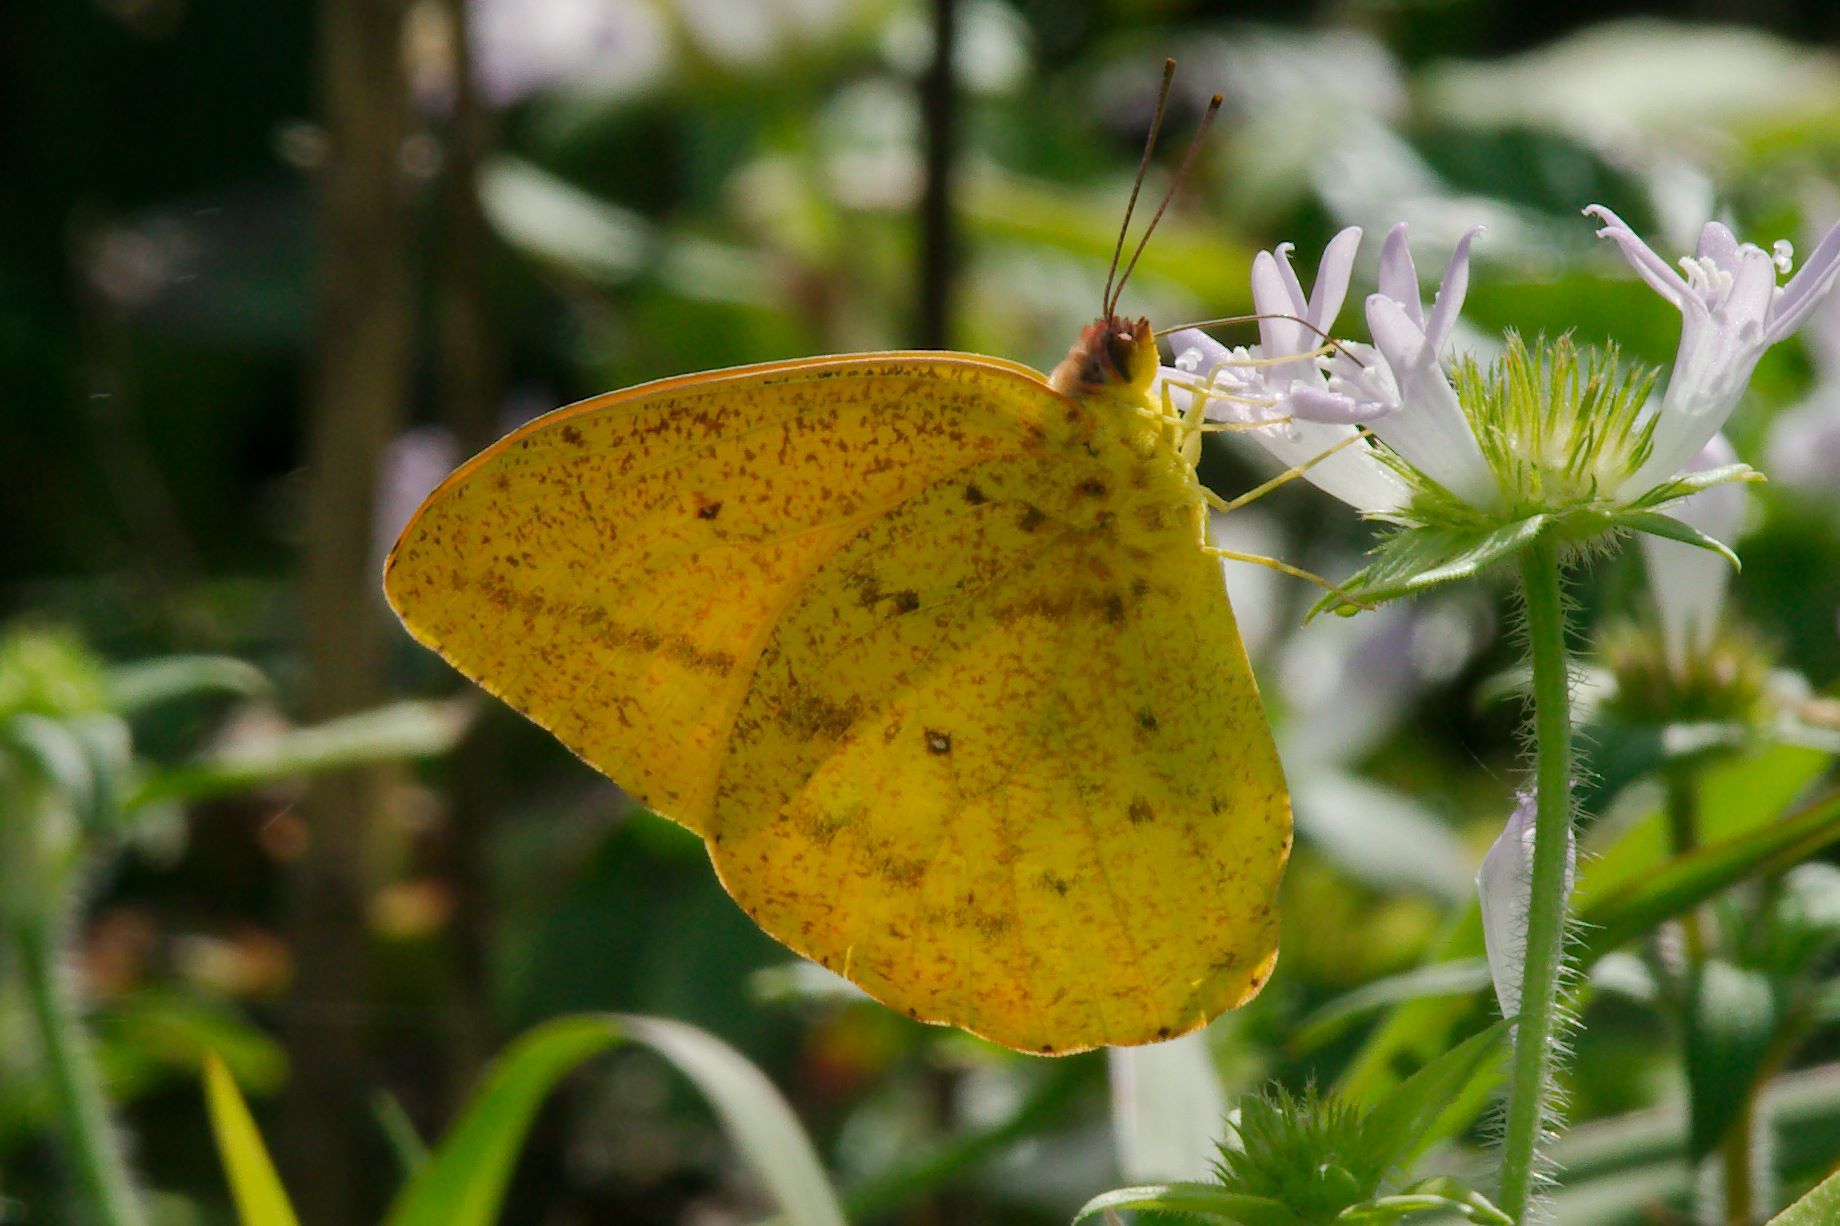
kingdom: Animalia
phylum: Arthropoda
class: Insecta
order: Lepidoptera
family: Pieridae
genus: Phoebis
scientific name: Phoebis agarithe
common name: Large orange sulphur
